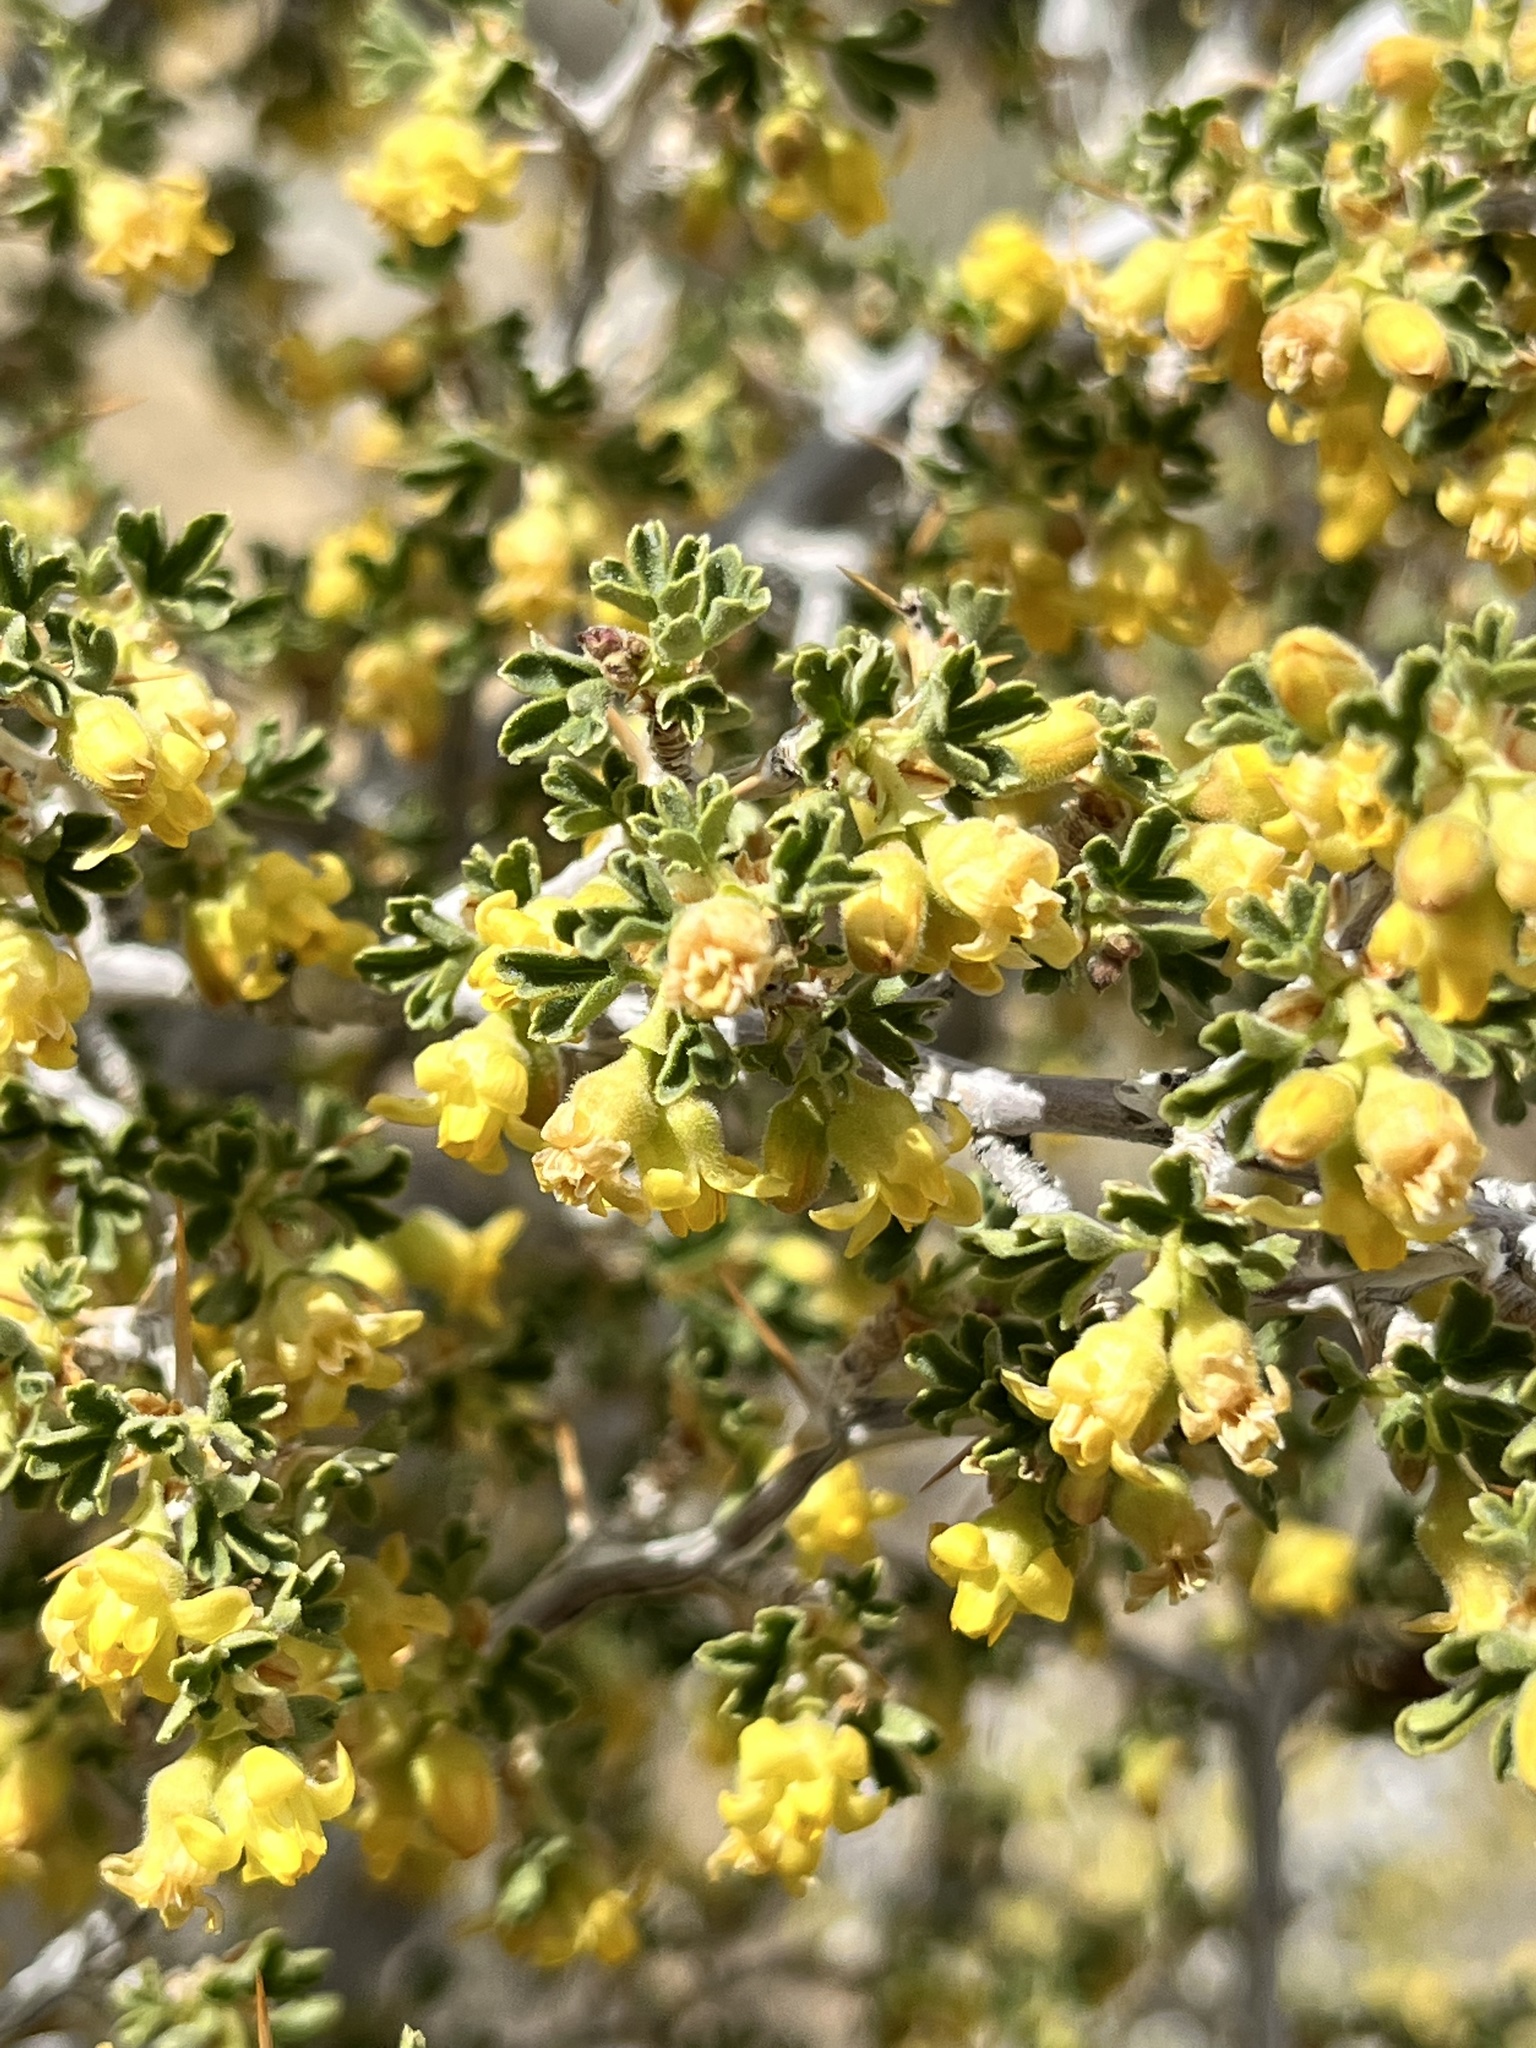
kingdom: Plantae
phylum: Tracheophyta
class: Magnoliopsida
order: Saxifragales
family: Grossulariaceae
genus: Ribes
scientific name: Ribes velutinum
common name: Desert gooseberry
